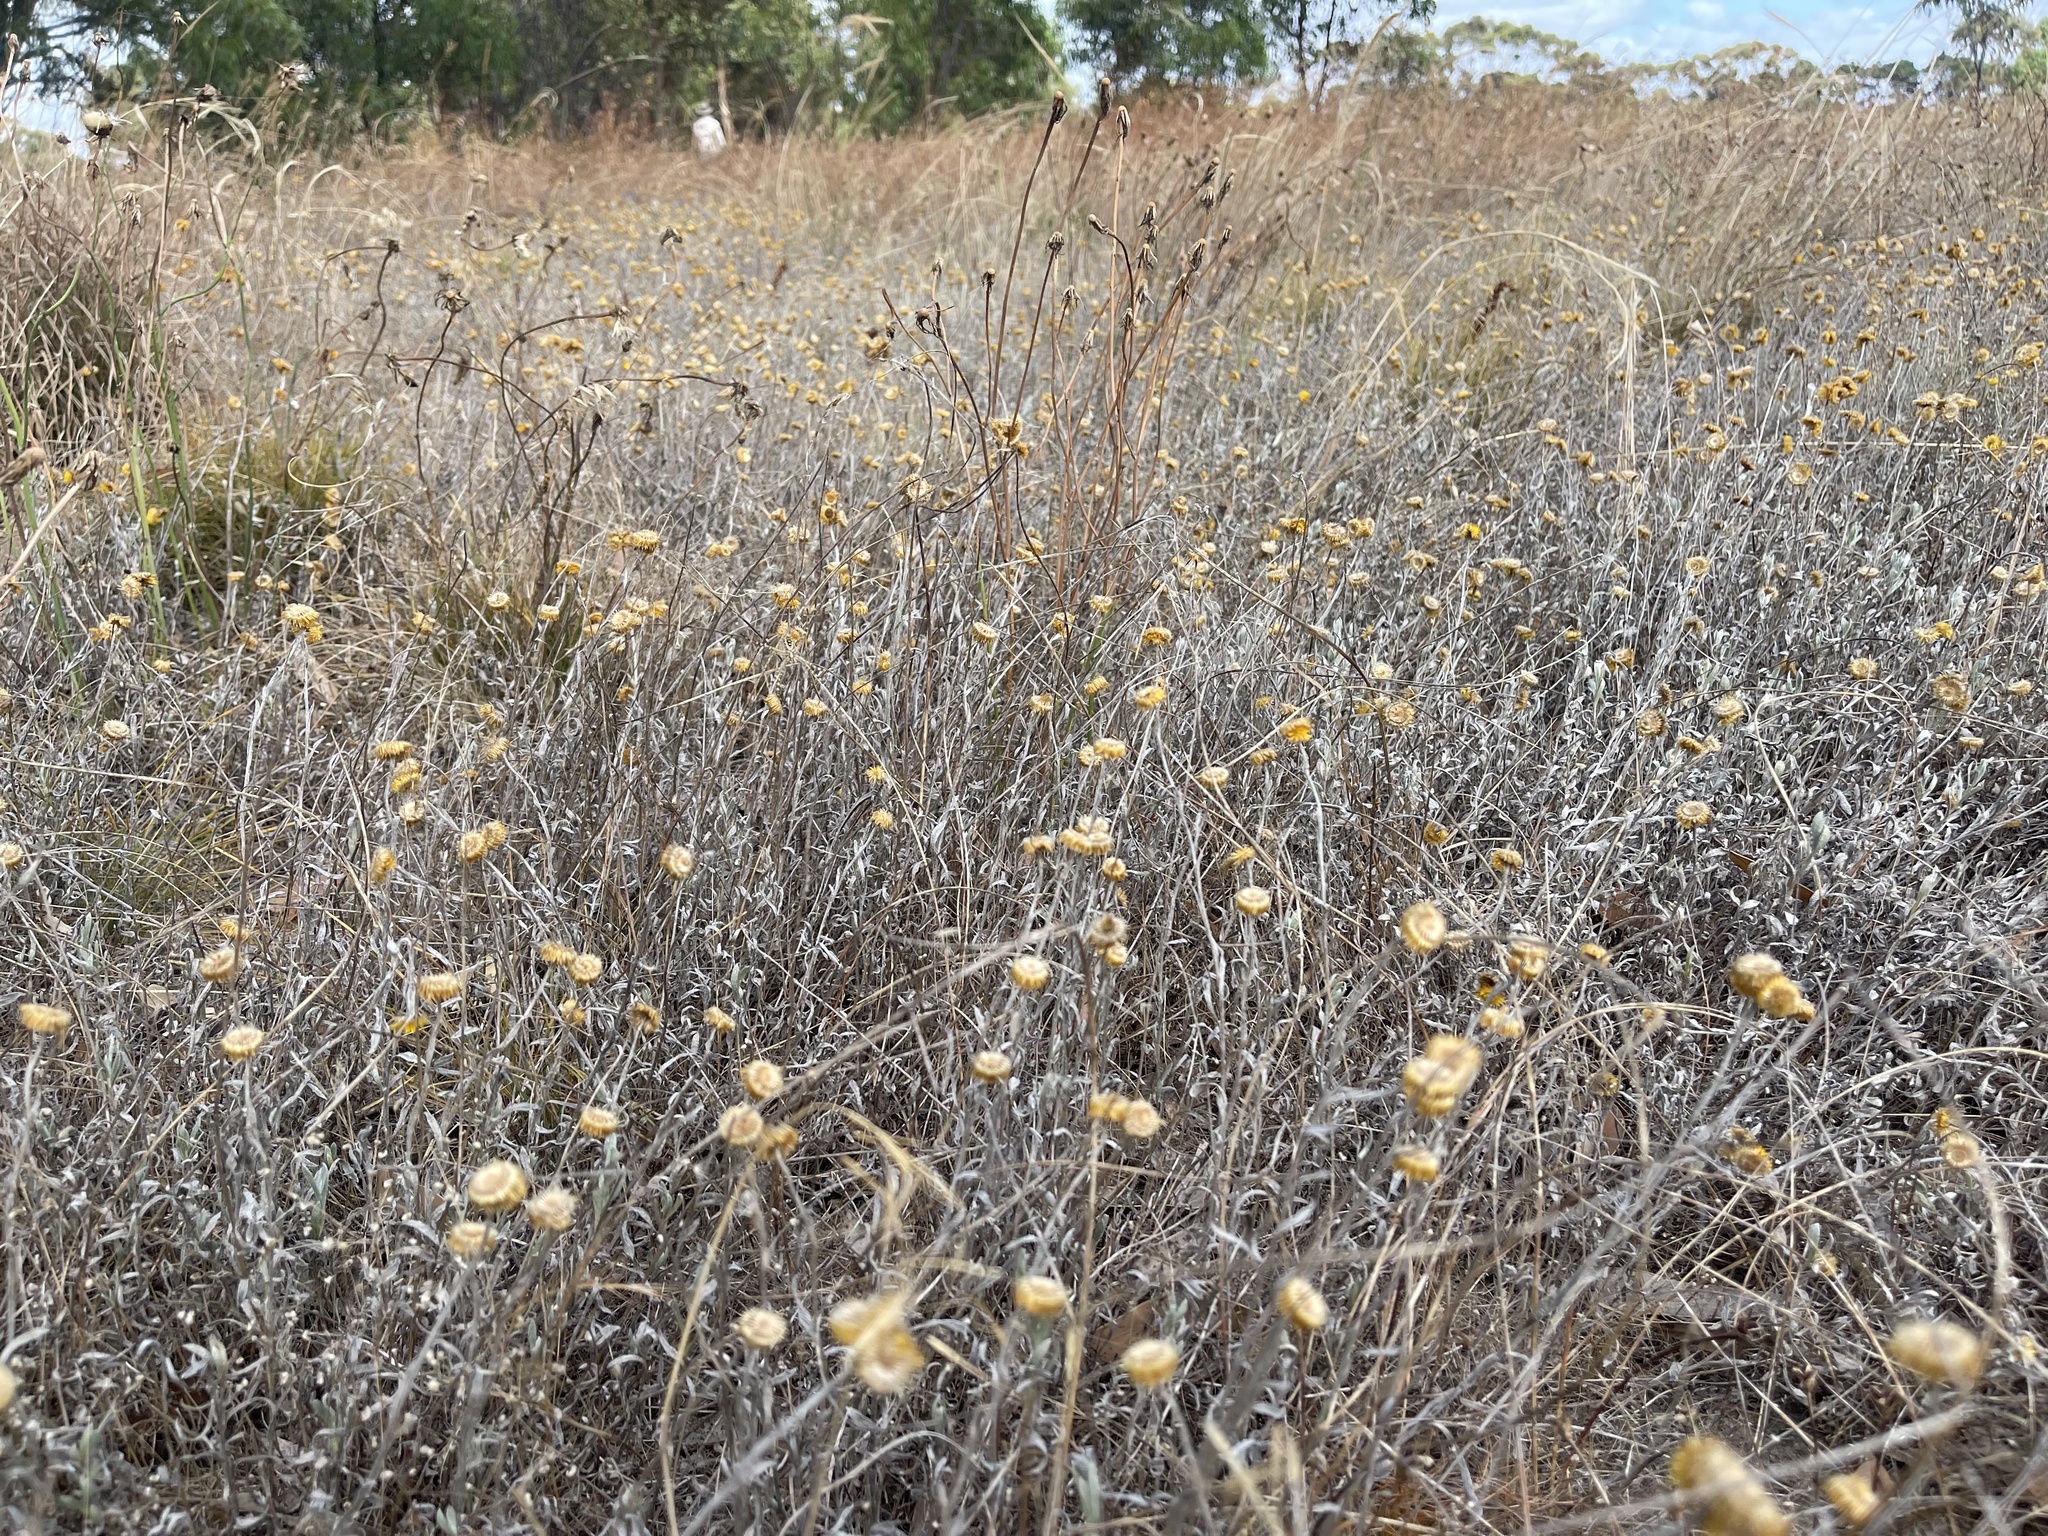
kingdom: Plantae
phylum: Tracheophyta
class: Magnoliopsida
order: Asterales
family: Asteraceae
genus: Chrysocephalum
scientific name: Chrysocephalum apiculatum
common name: Common everlasting
